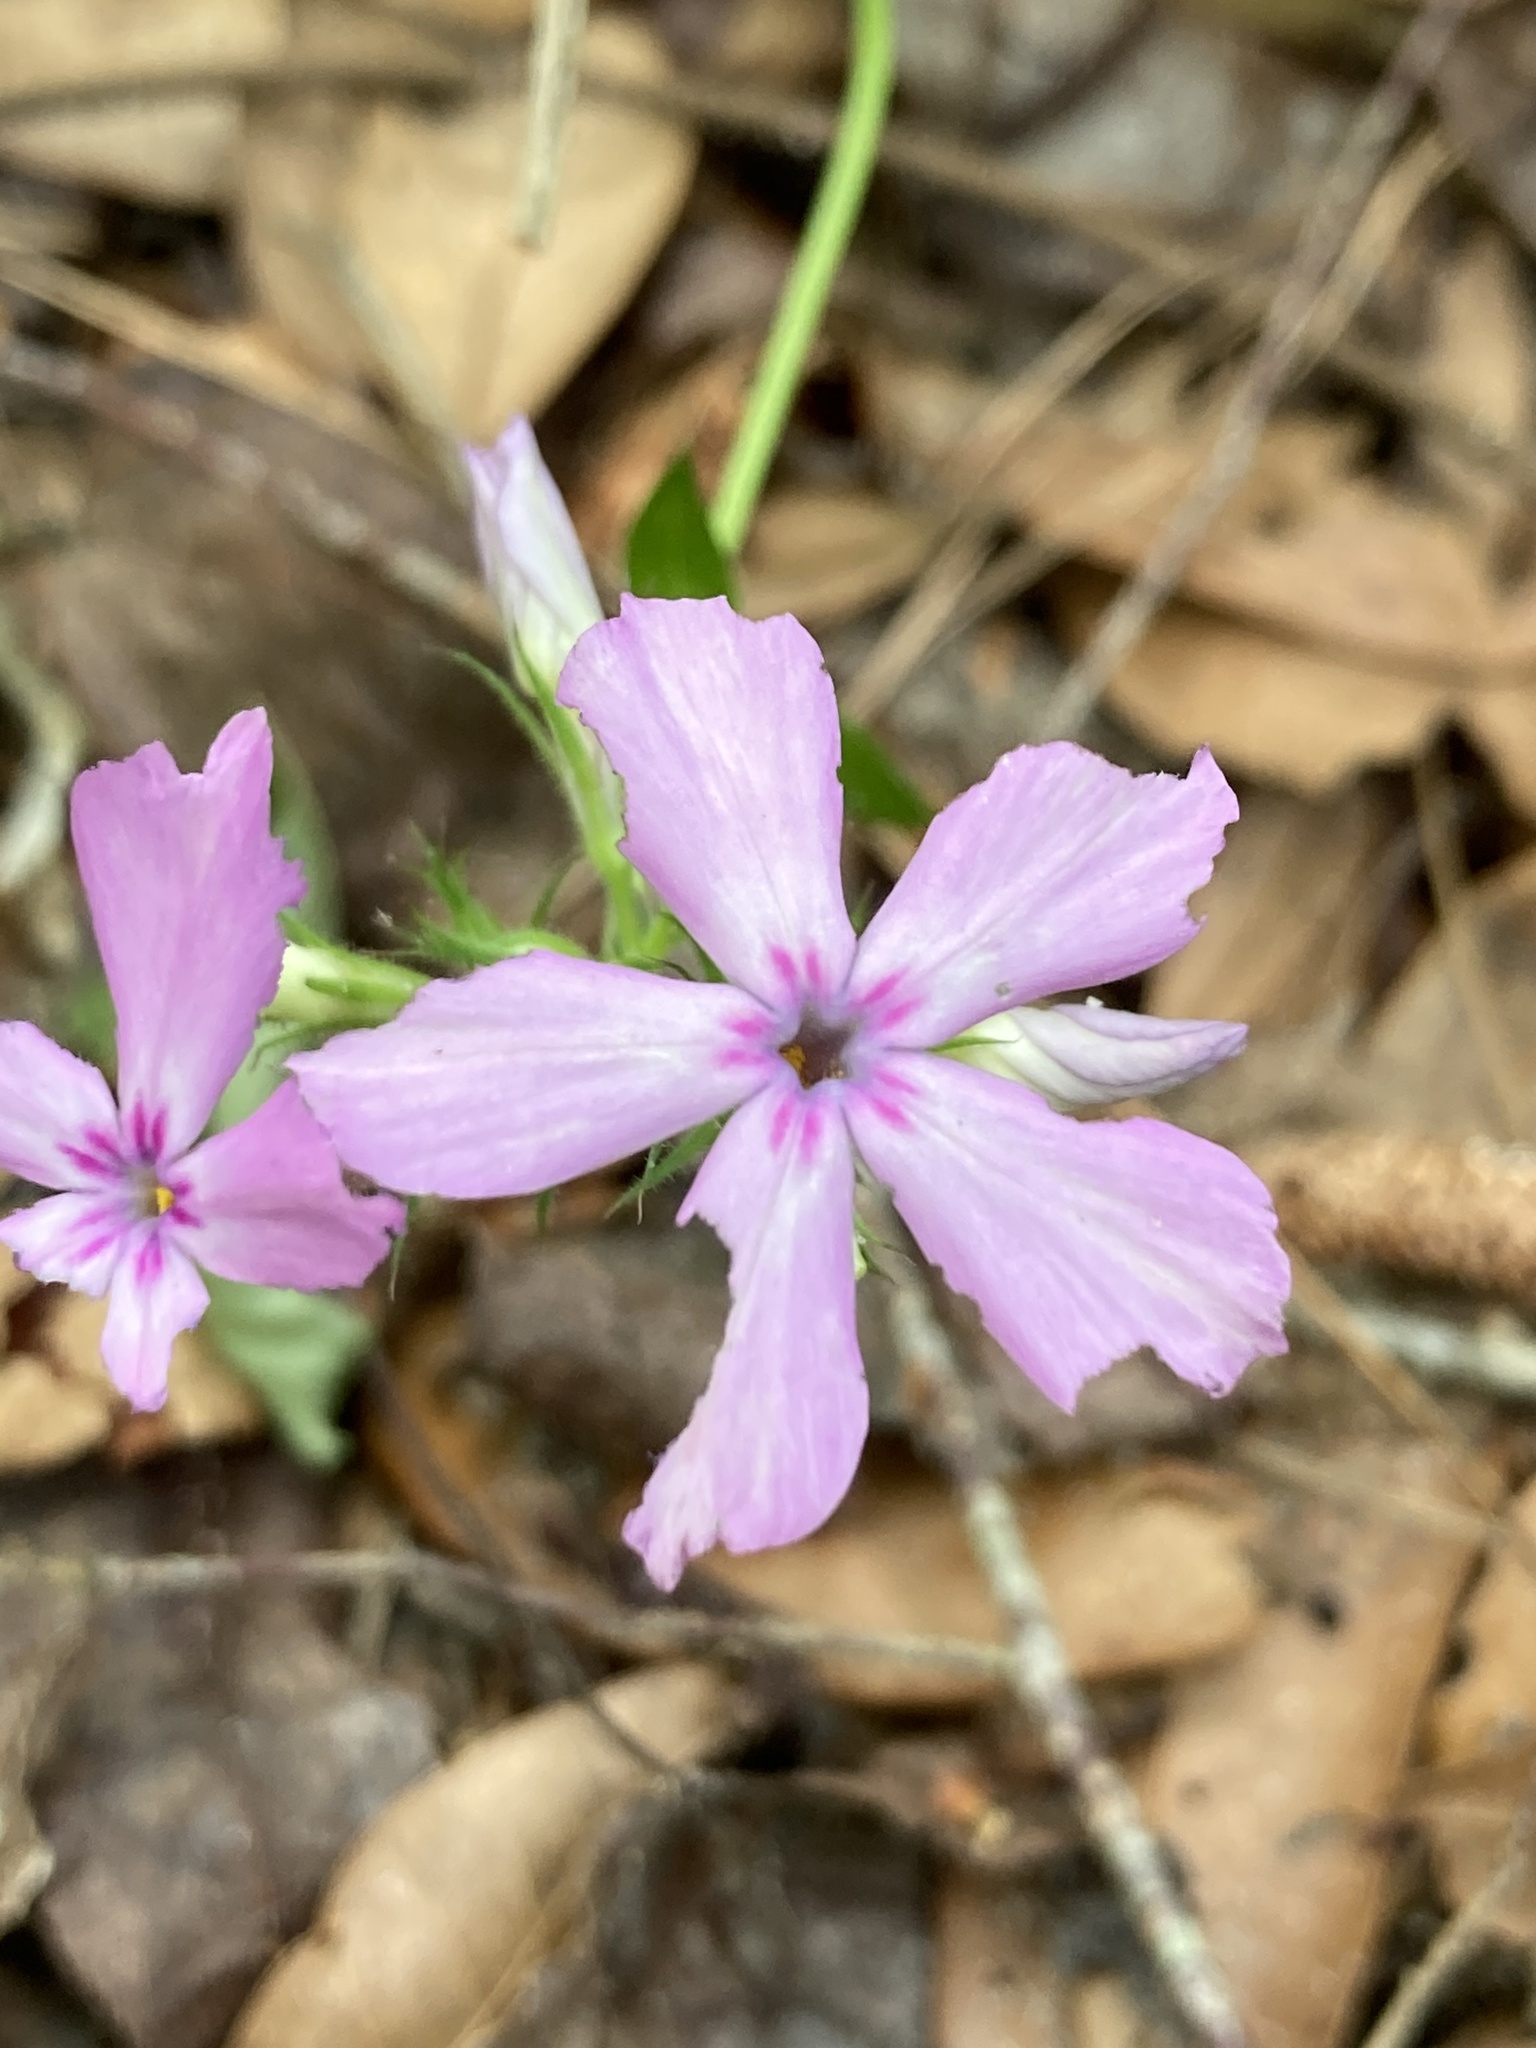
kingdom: Plantae
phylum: Tracheophyta
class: Magnoliopsida
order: Ericales
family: Polemoniaceae
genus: Phlox
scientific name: Phlox pilosa
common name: Prairie phlox
